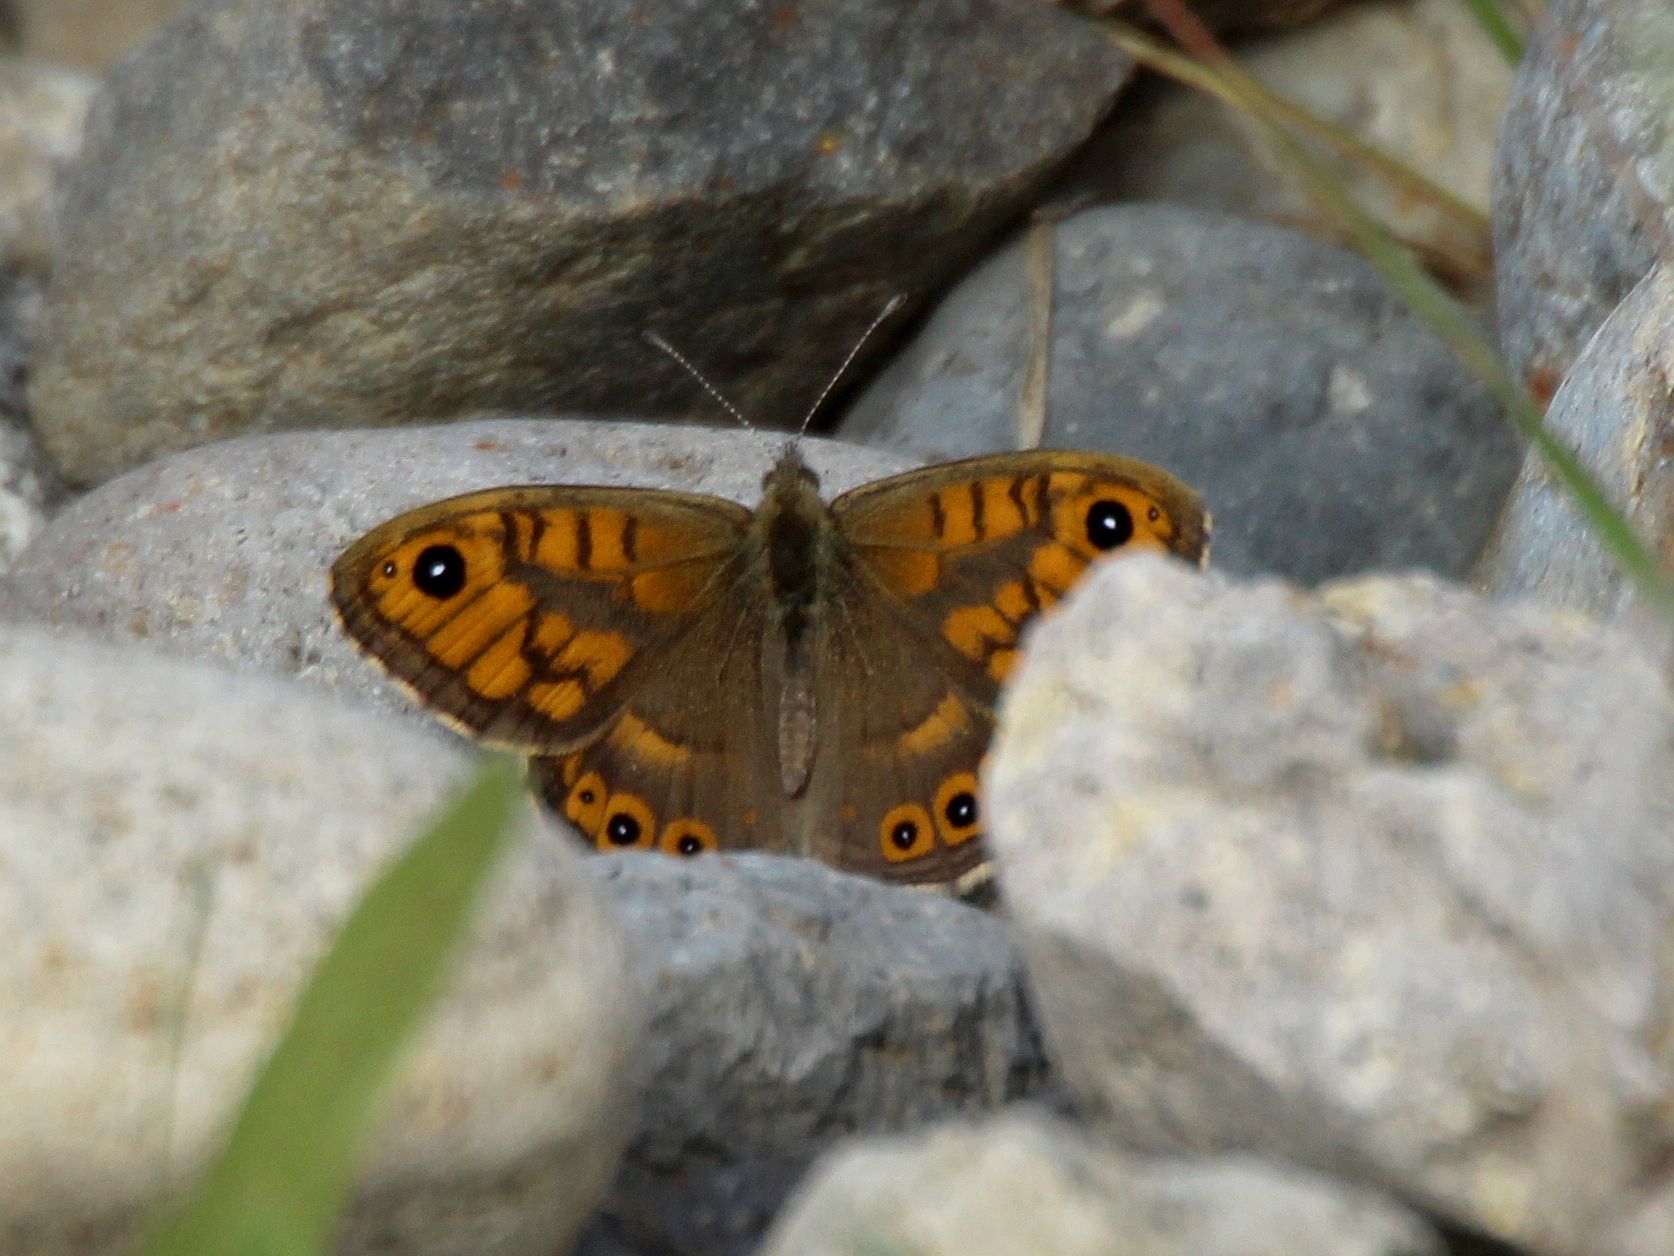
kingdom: Animalia
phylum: Arthropoda
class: Insecta
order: Lepidoptera
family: Nymphalidae
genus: Pararge
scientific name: Pararge Lasiommata megera
